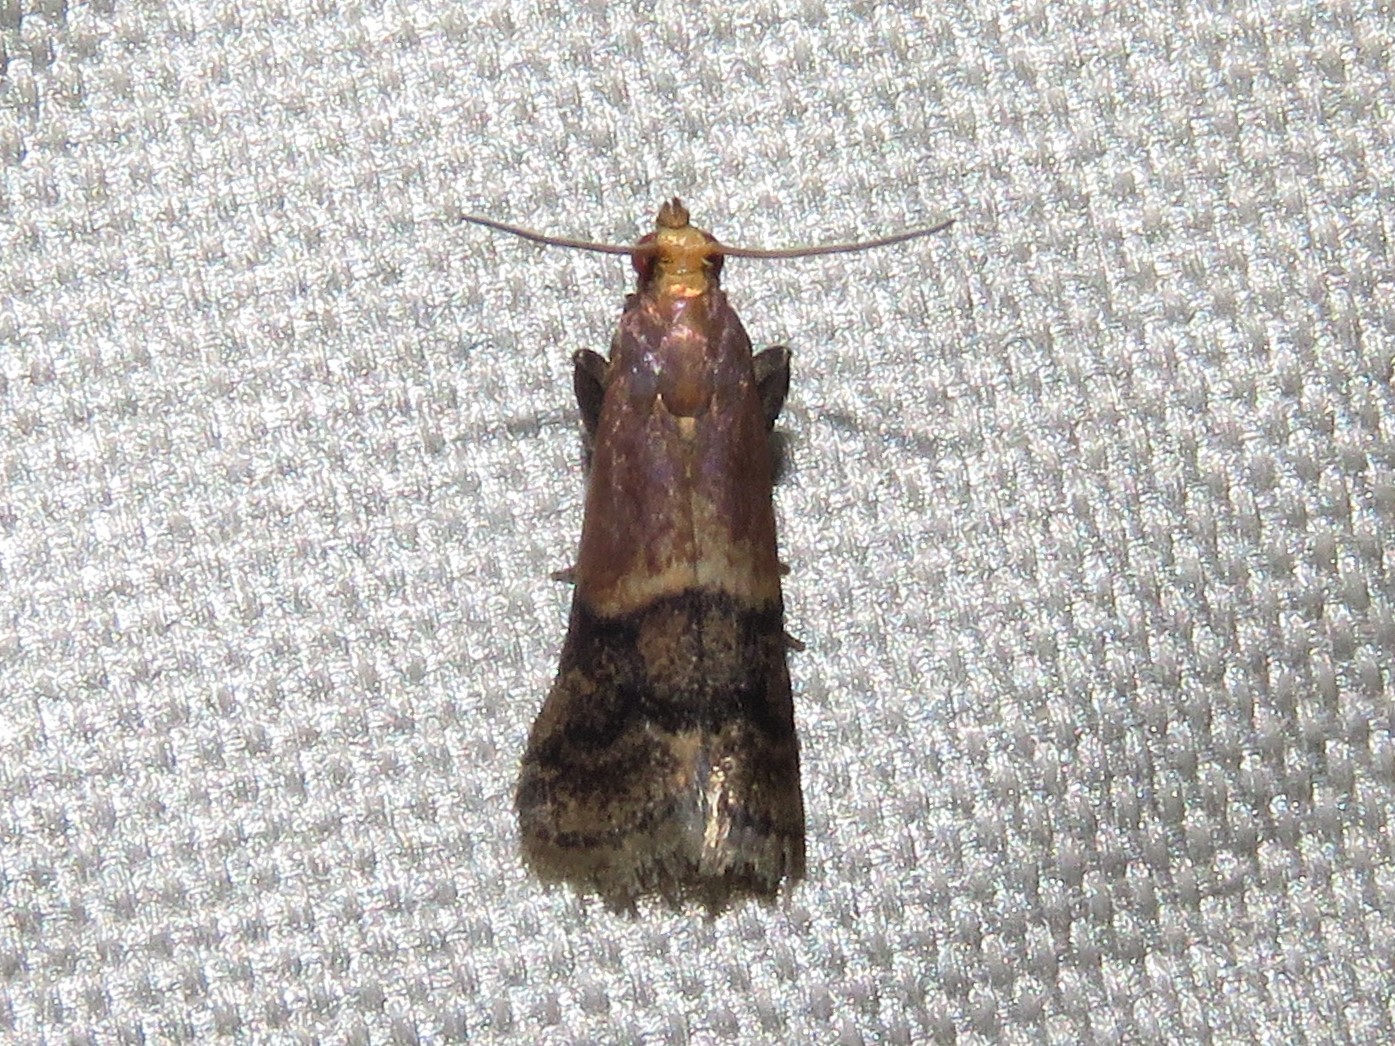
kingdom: Animalia
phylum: Arthropoda
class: Insecta
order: Lepidoptera
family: Pyralidae
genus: Eulogia
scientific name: Eulogia ochrifrontella
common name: Broad-banded eulogia moth
